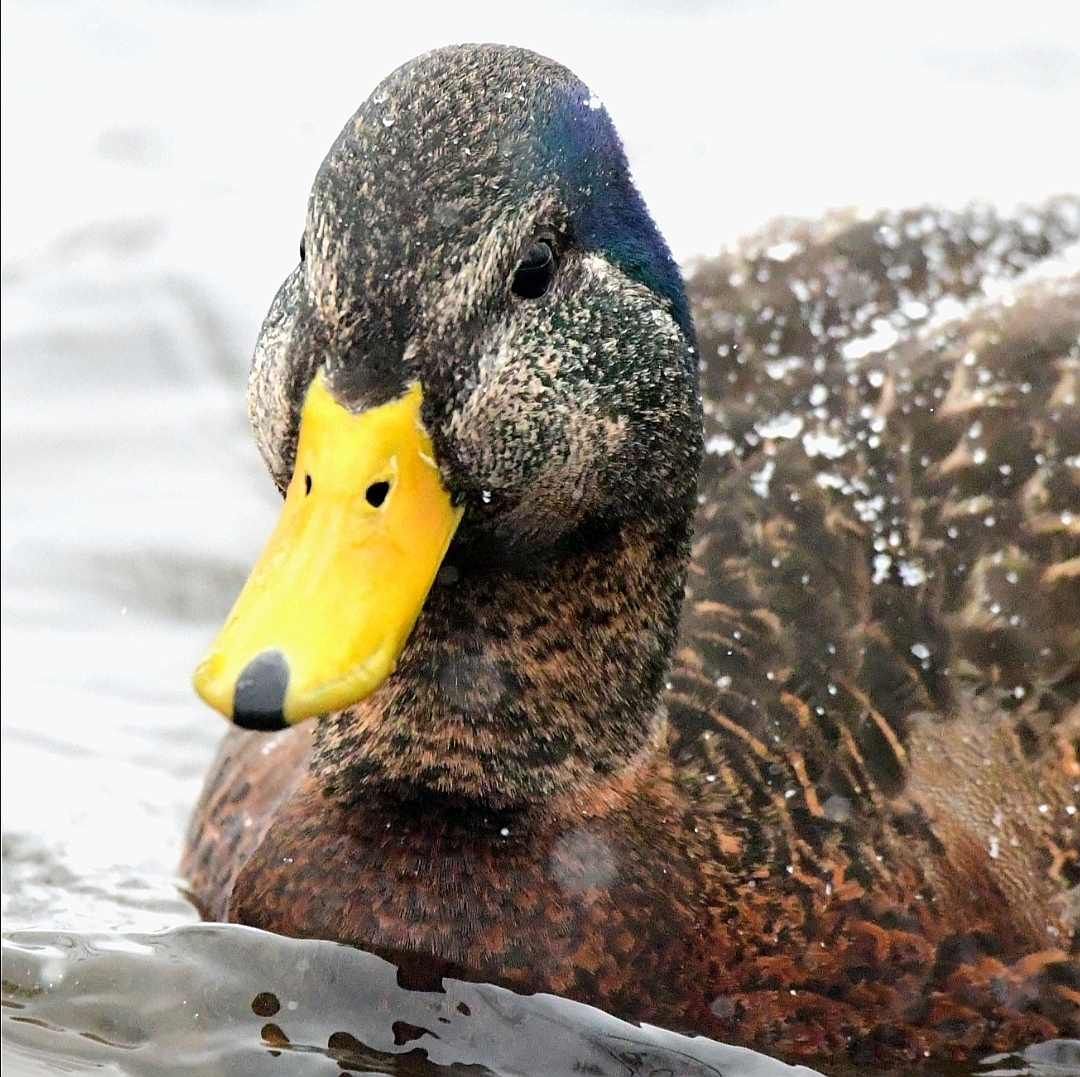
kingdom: Animalia
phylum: Chordata
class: Aves
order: Anseriformes
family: Anatidae
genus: Anas
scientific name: Anas
